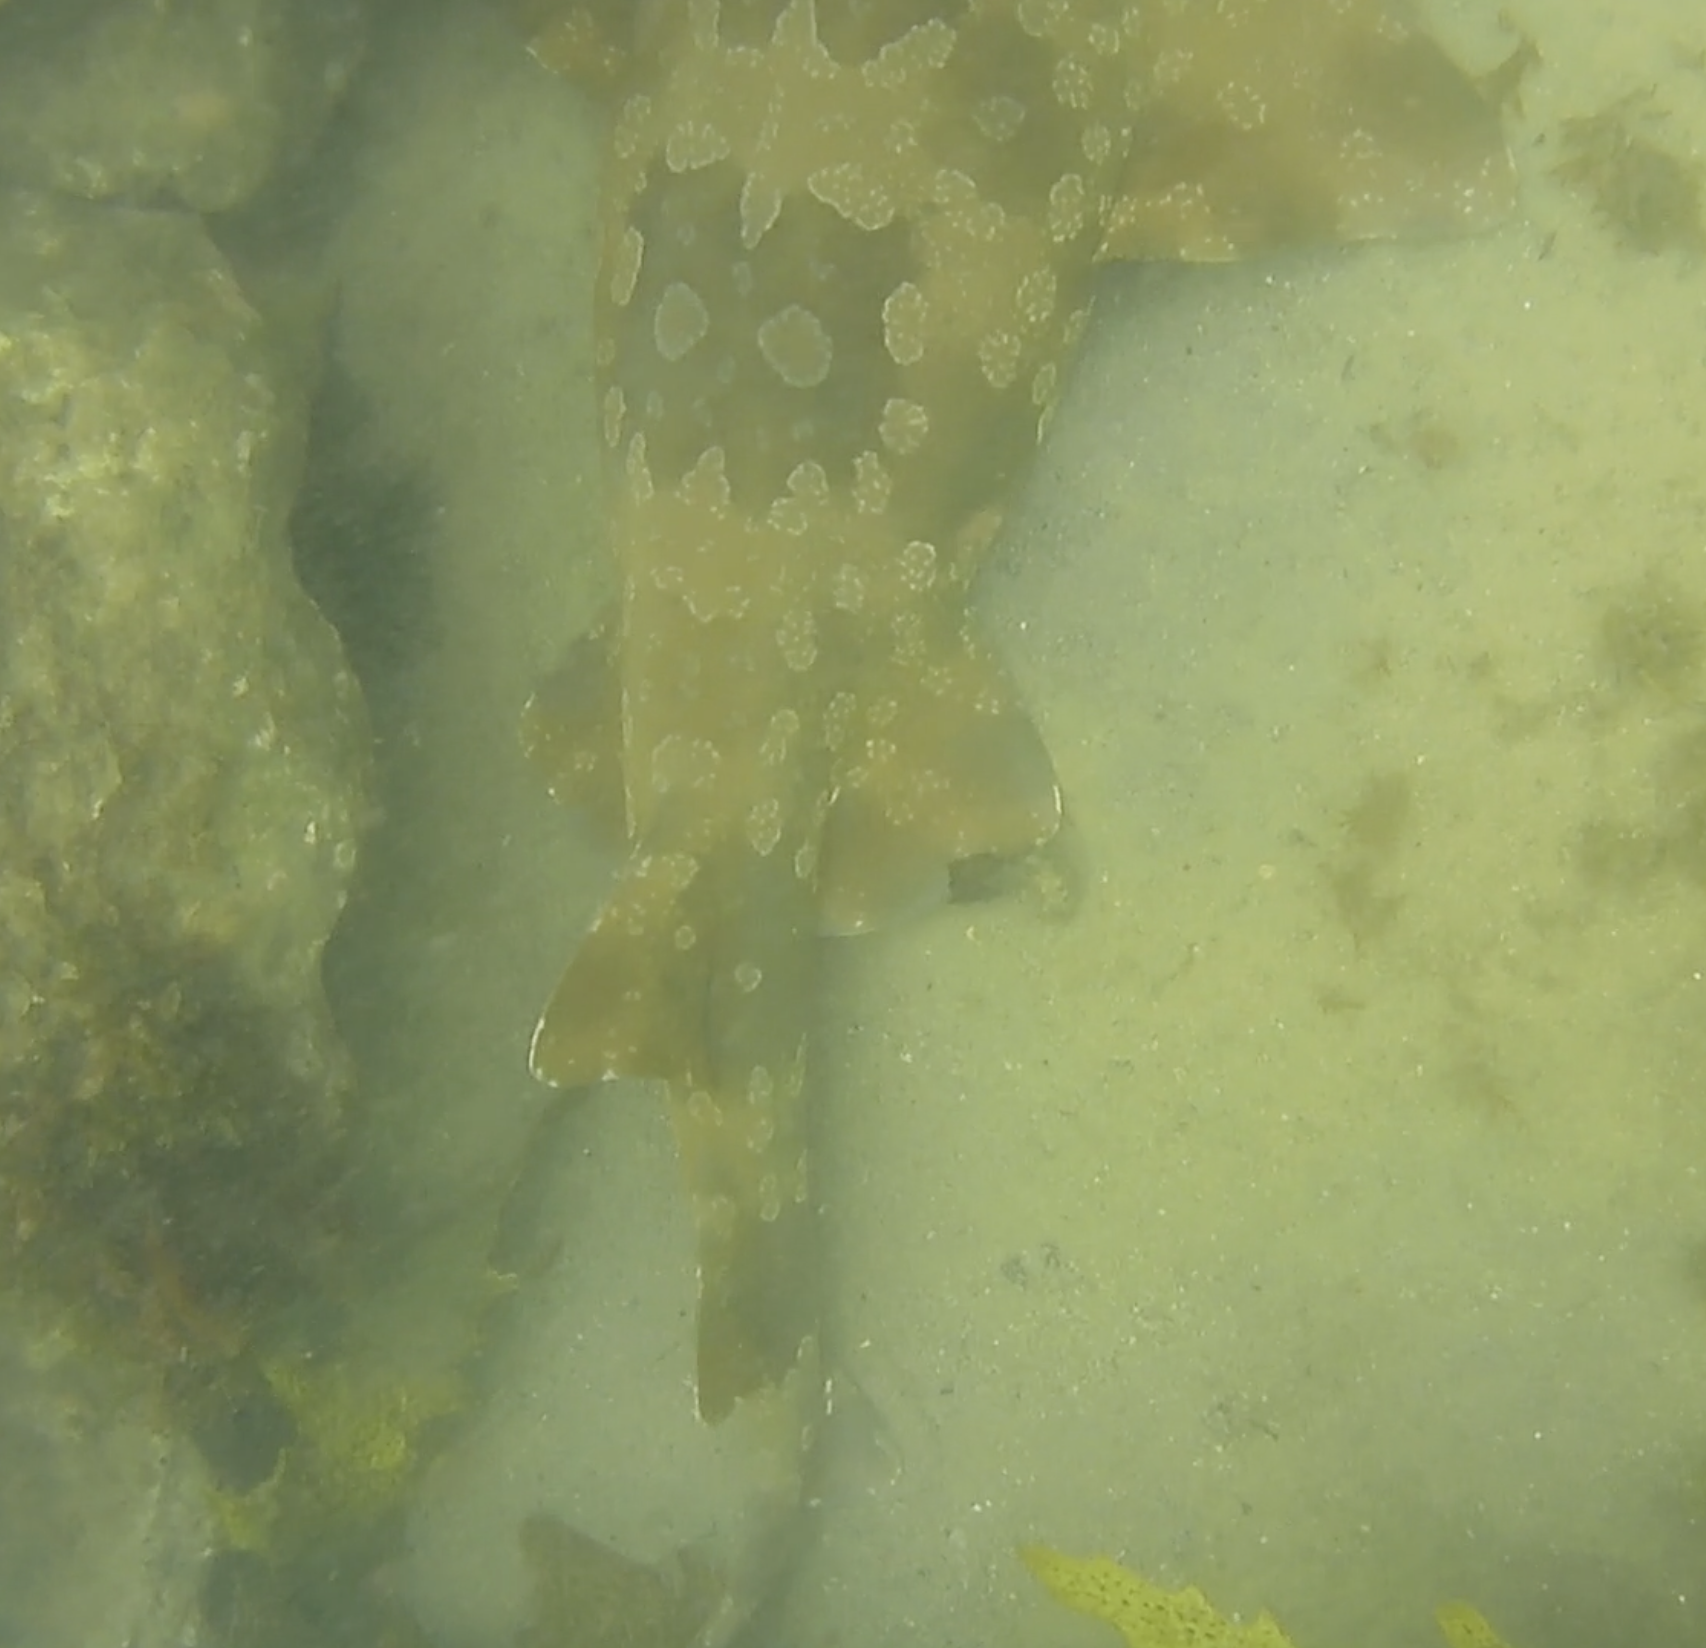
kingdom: Animalia
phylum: Chordata
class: Elasmobranchii
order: Orectolobiformes
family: Orectolobidae
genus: Orectolobus
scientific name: Orectolobus maculatus
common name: Spotted wobbegong
